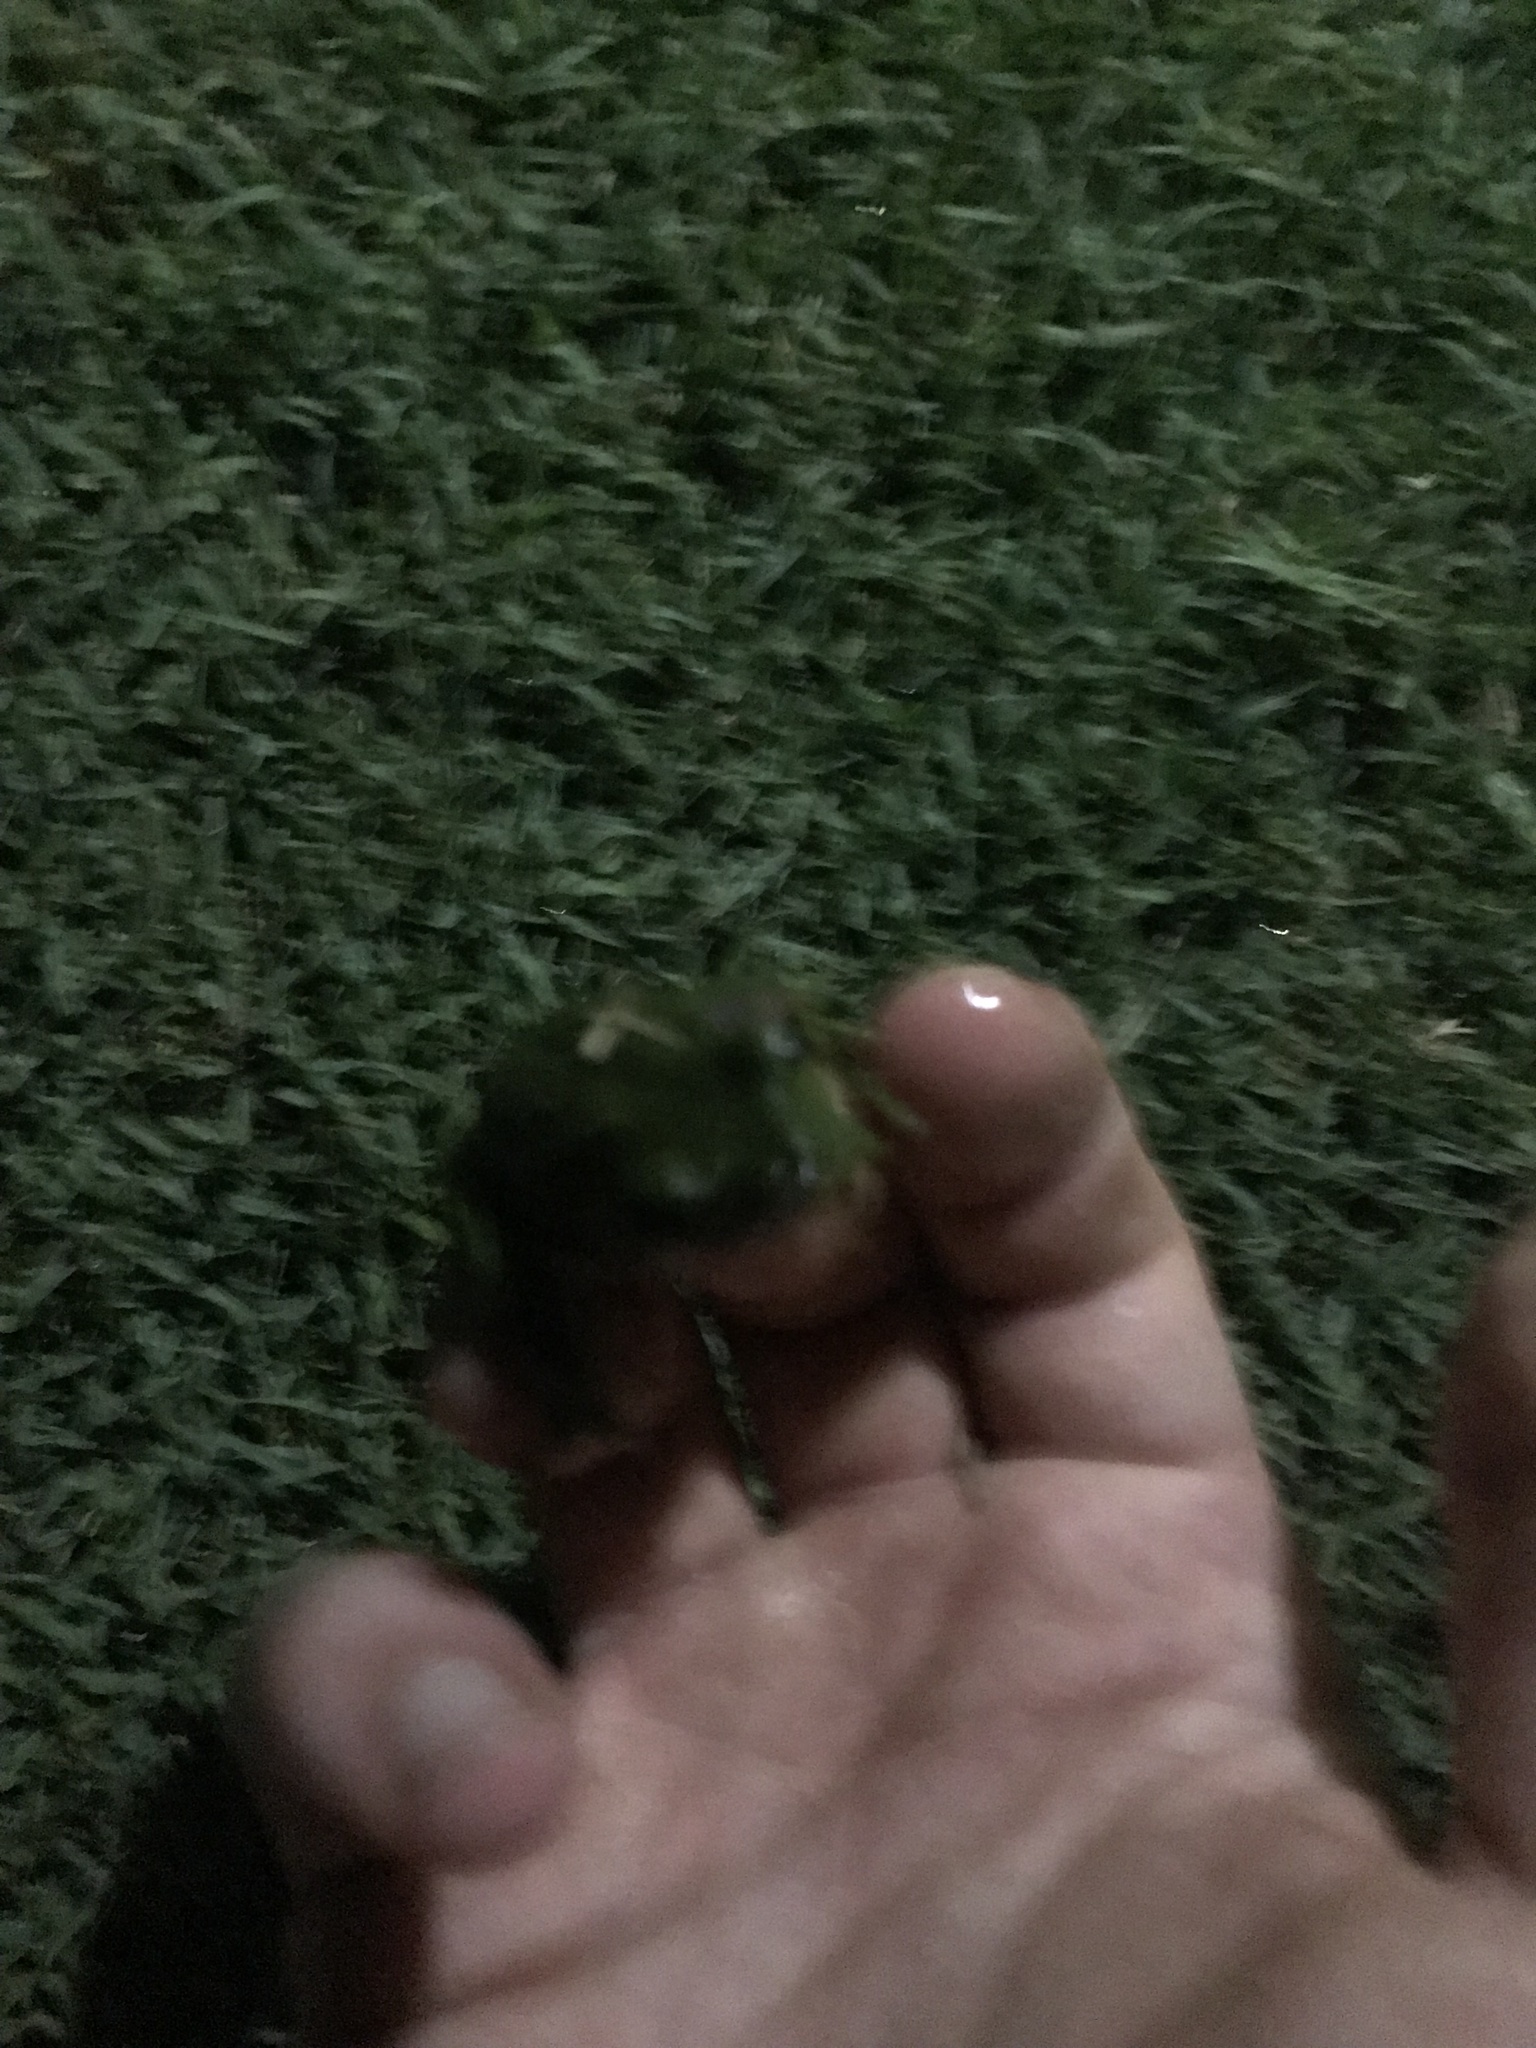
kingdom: Animalia
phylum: Chordata
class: Amphibia
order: Anura
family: Hylidae
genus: Dryophytes
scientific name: Dryophytes cinereus
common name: Green treefrog
